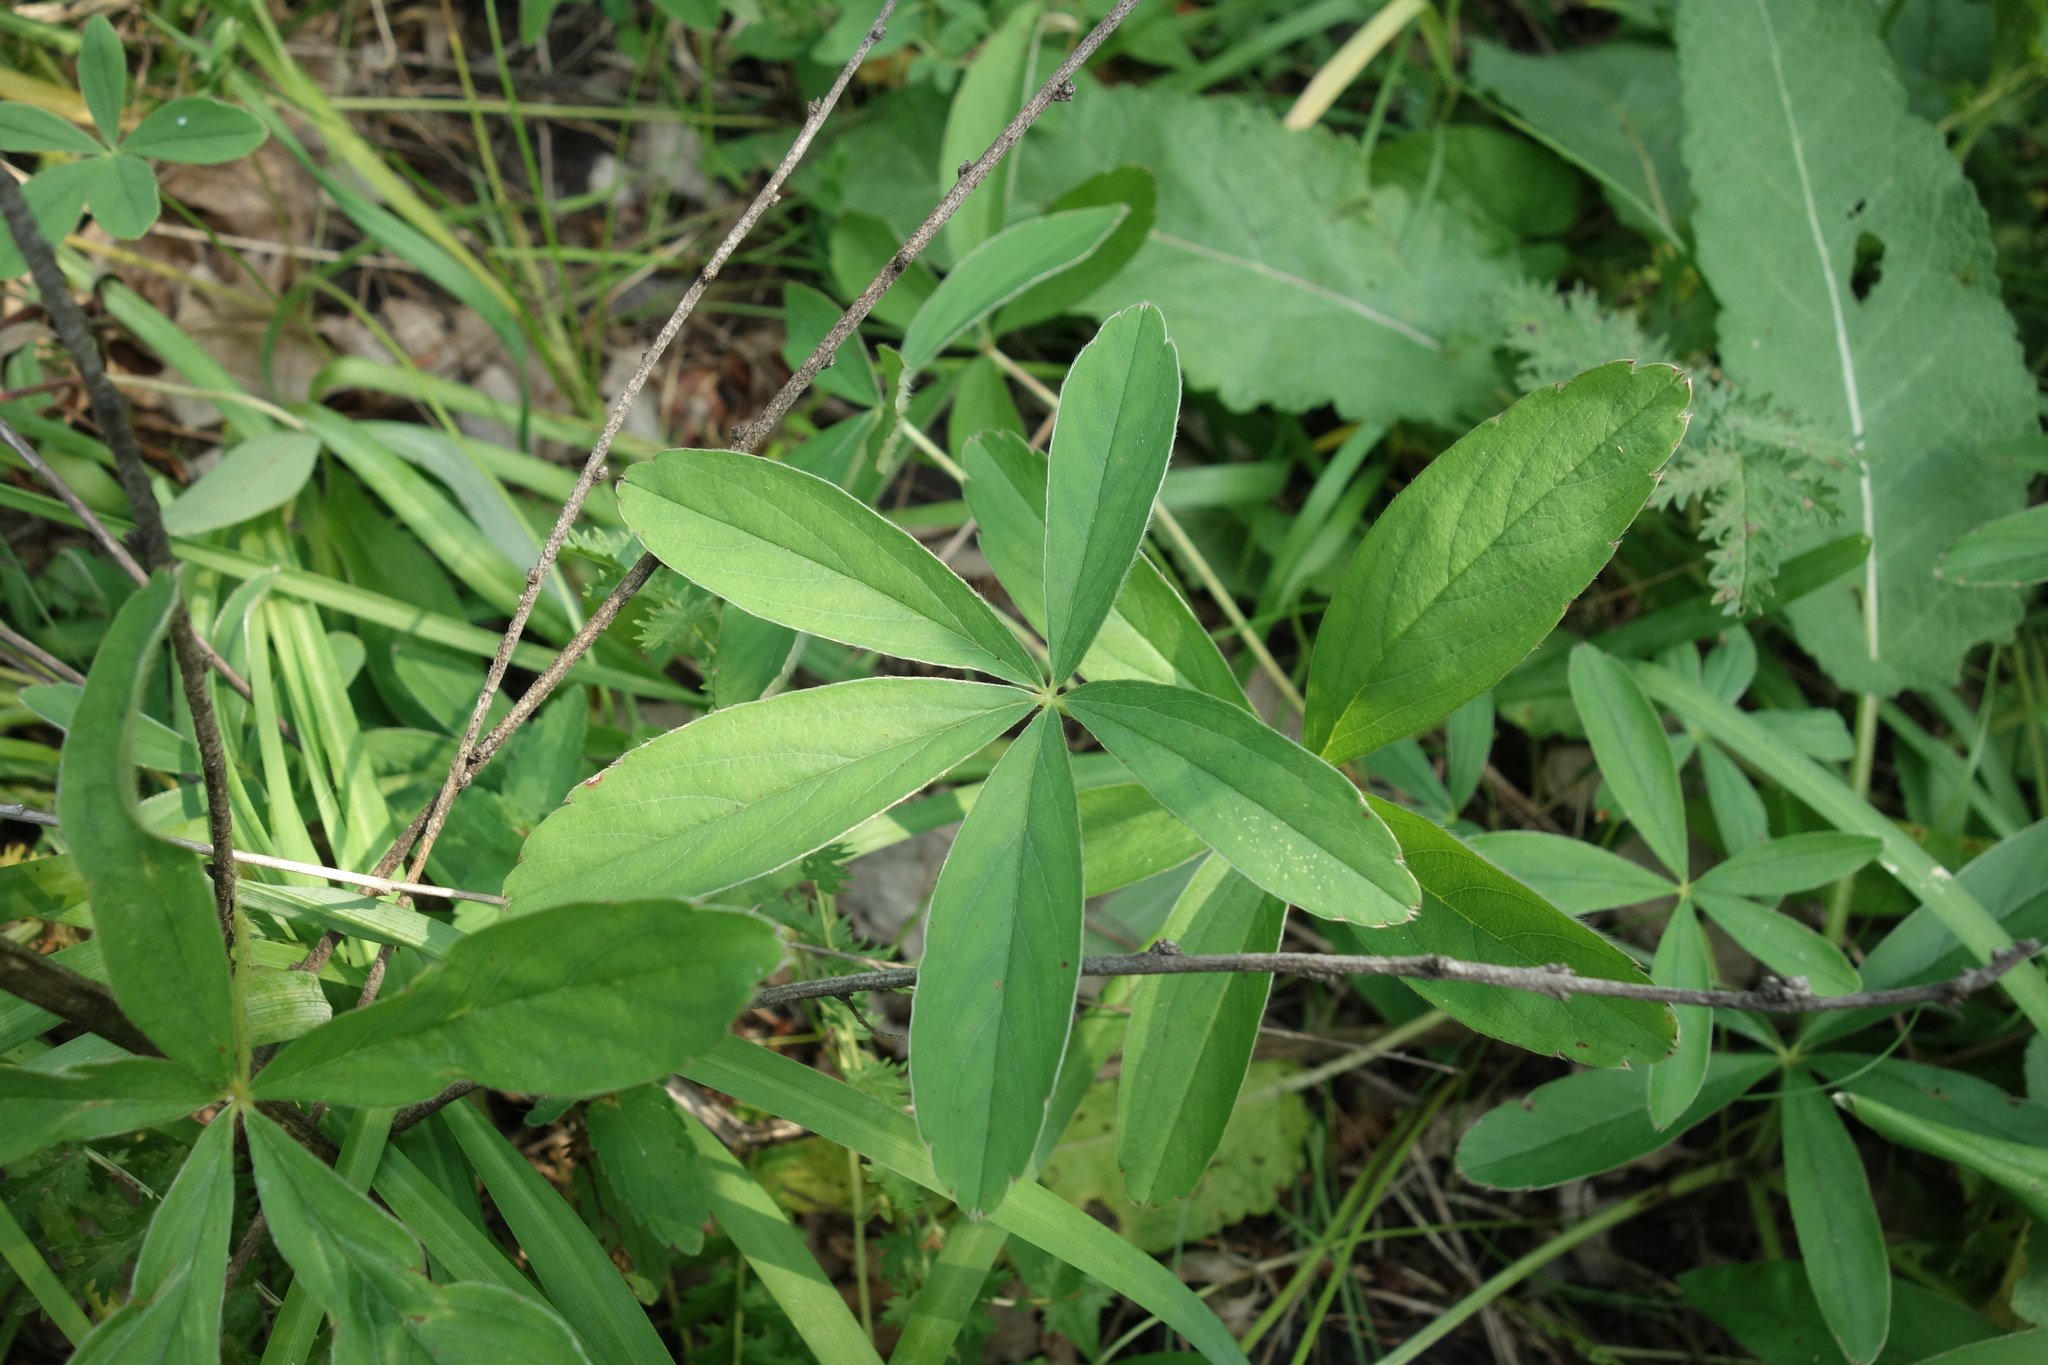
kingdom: Plantae
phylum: Tracheophyta
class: Magnoliopsida
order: Rosales
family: Rosaceae
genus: Potentilla
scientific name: Potentilla alba
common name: White cinquefoil
